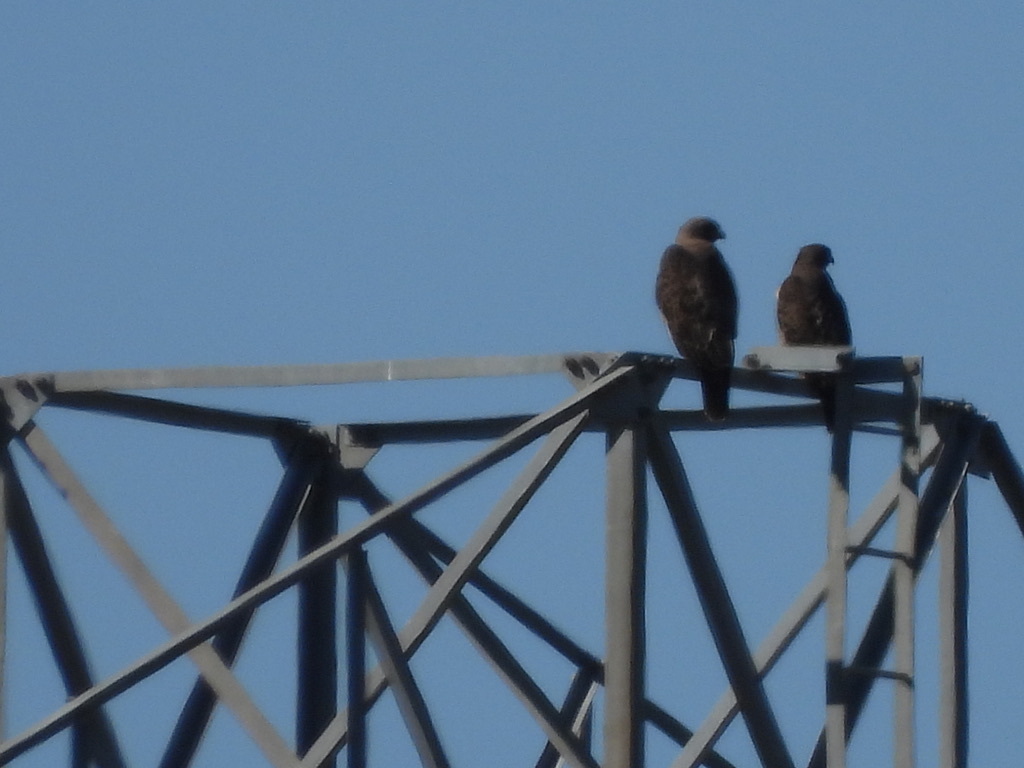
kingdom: Animalia
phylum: Chordata
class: Aves
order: Accipitriformes
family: Accipitridae
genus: Buteo
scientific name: Buteo jamaicensis
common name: Red-tailed hawk
